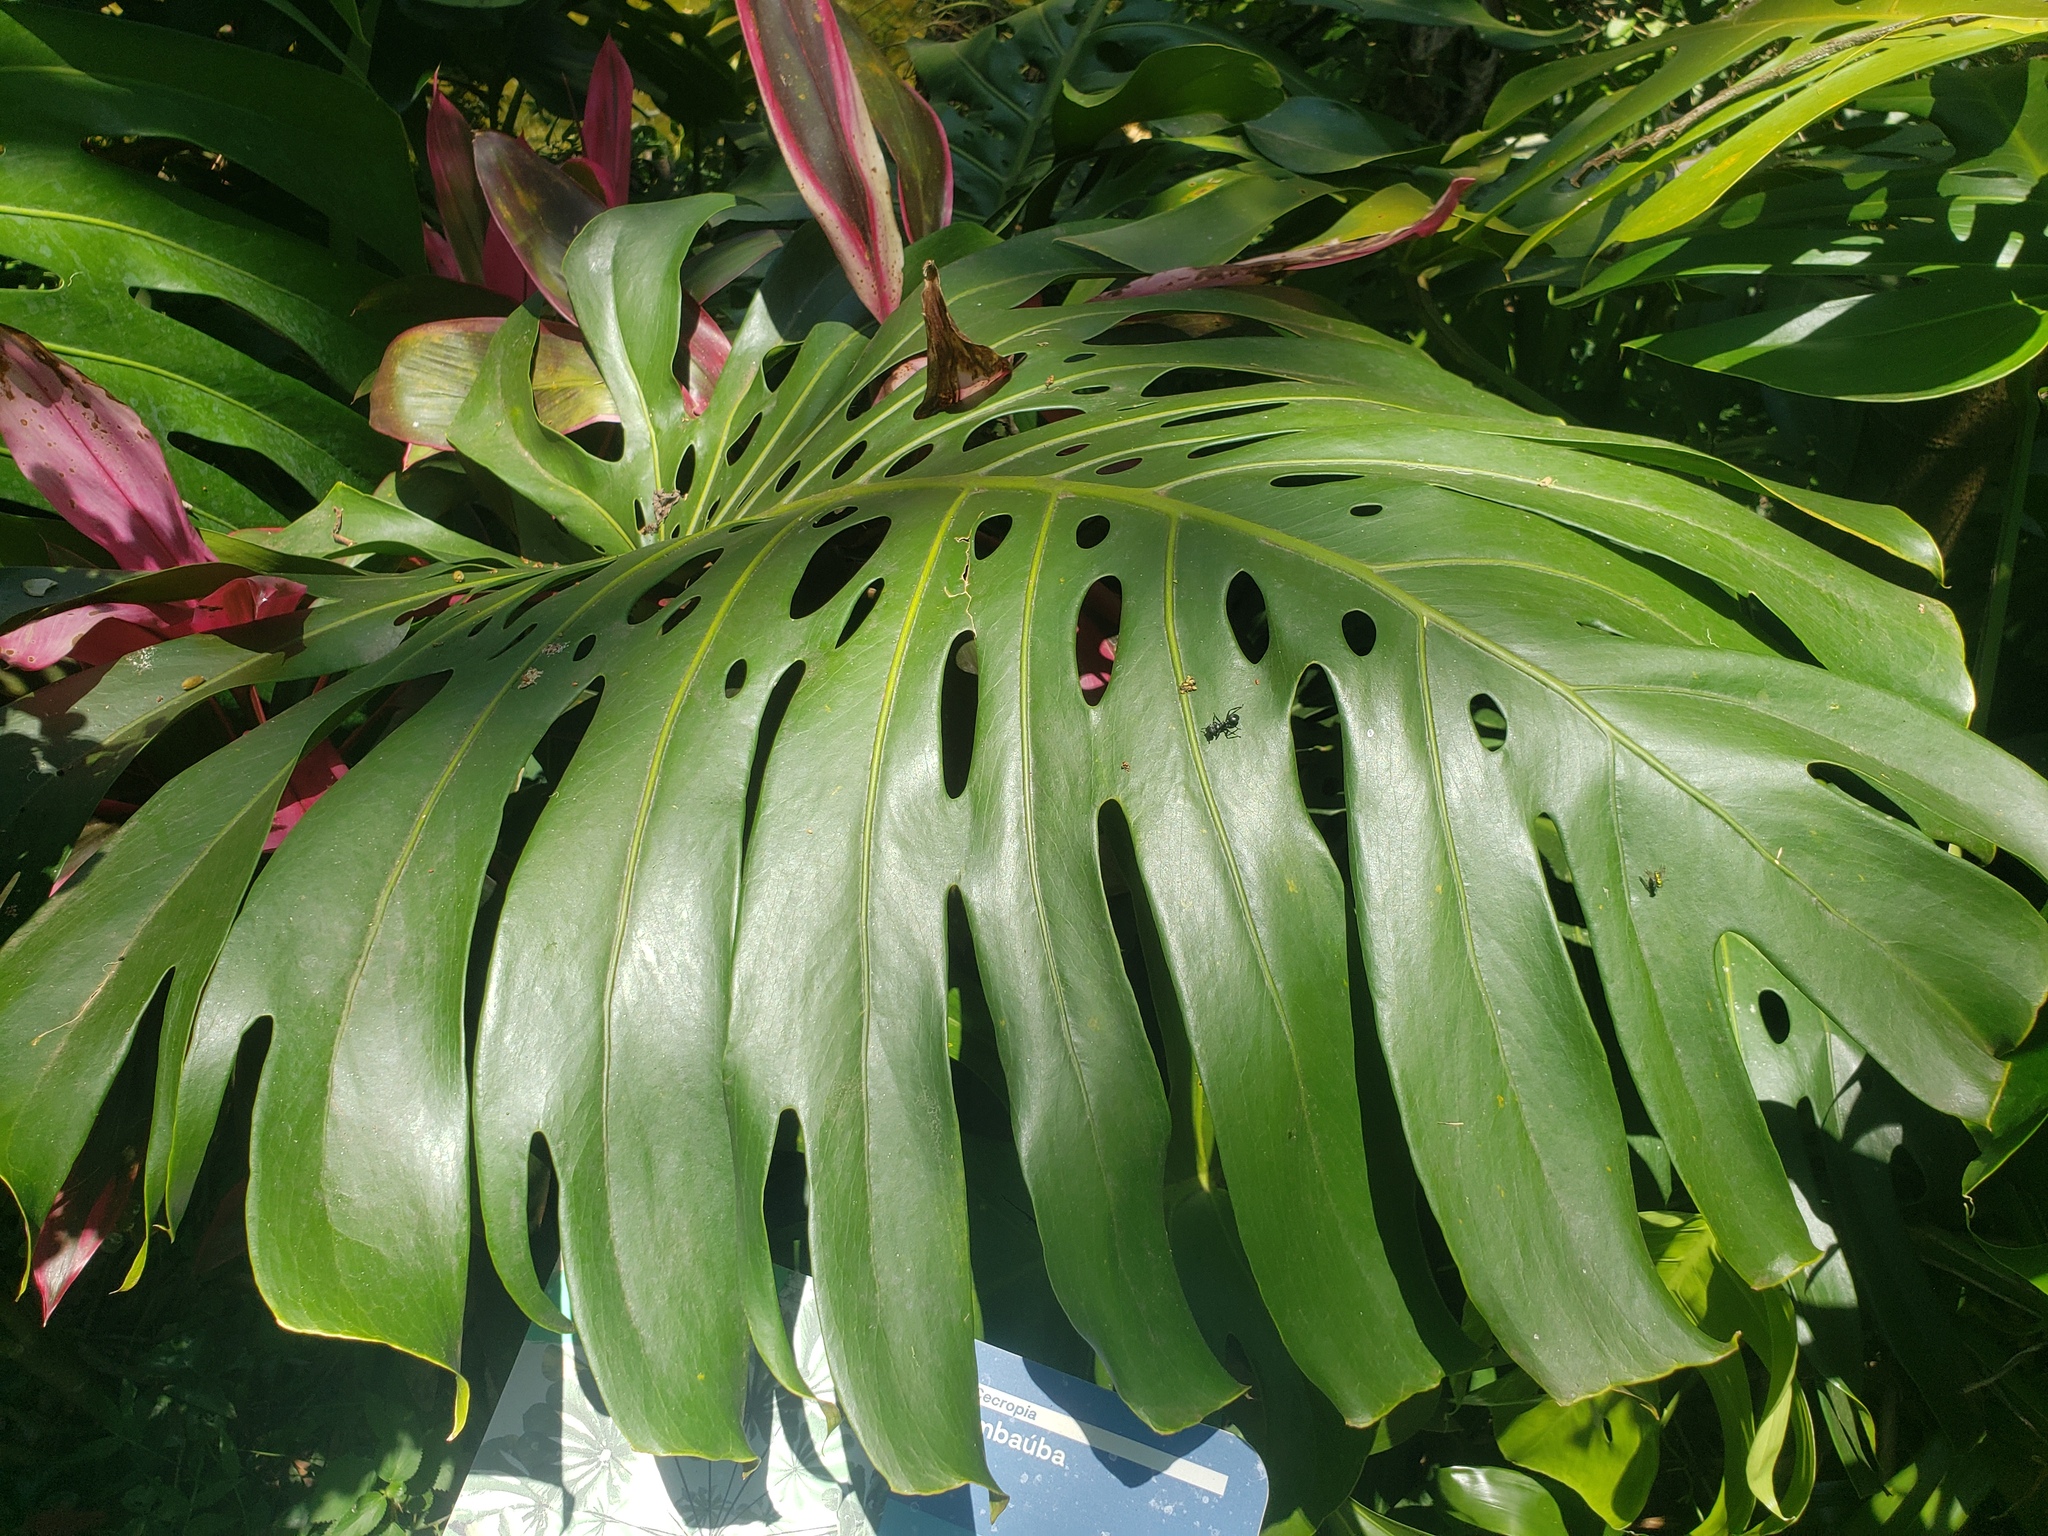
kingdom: Plantae
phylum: Tracheophyta
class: Liliopsida
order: Alismatales
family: Araceae
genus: Monstera
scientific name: Monstera deliciosa
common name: Cut-leaf-philodendron
